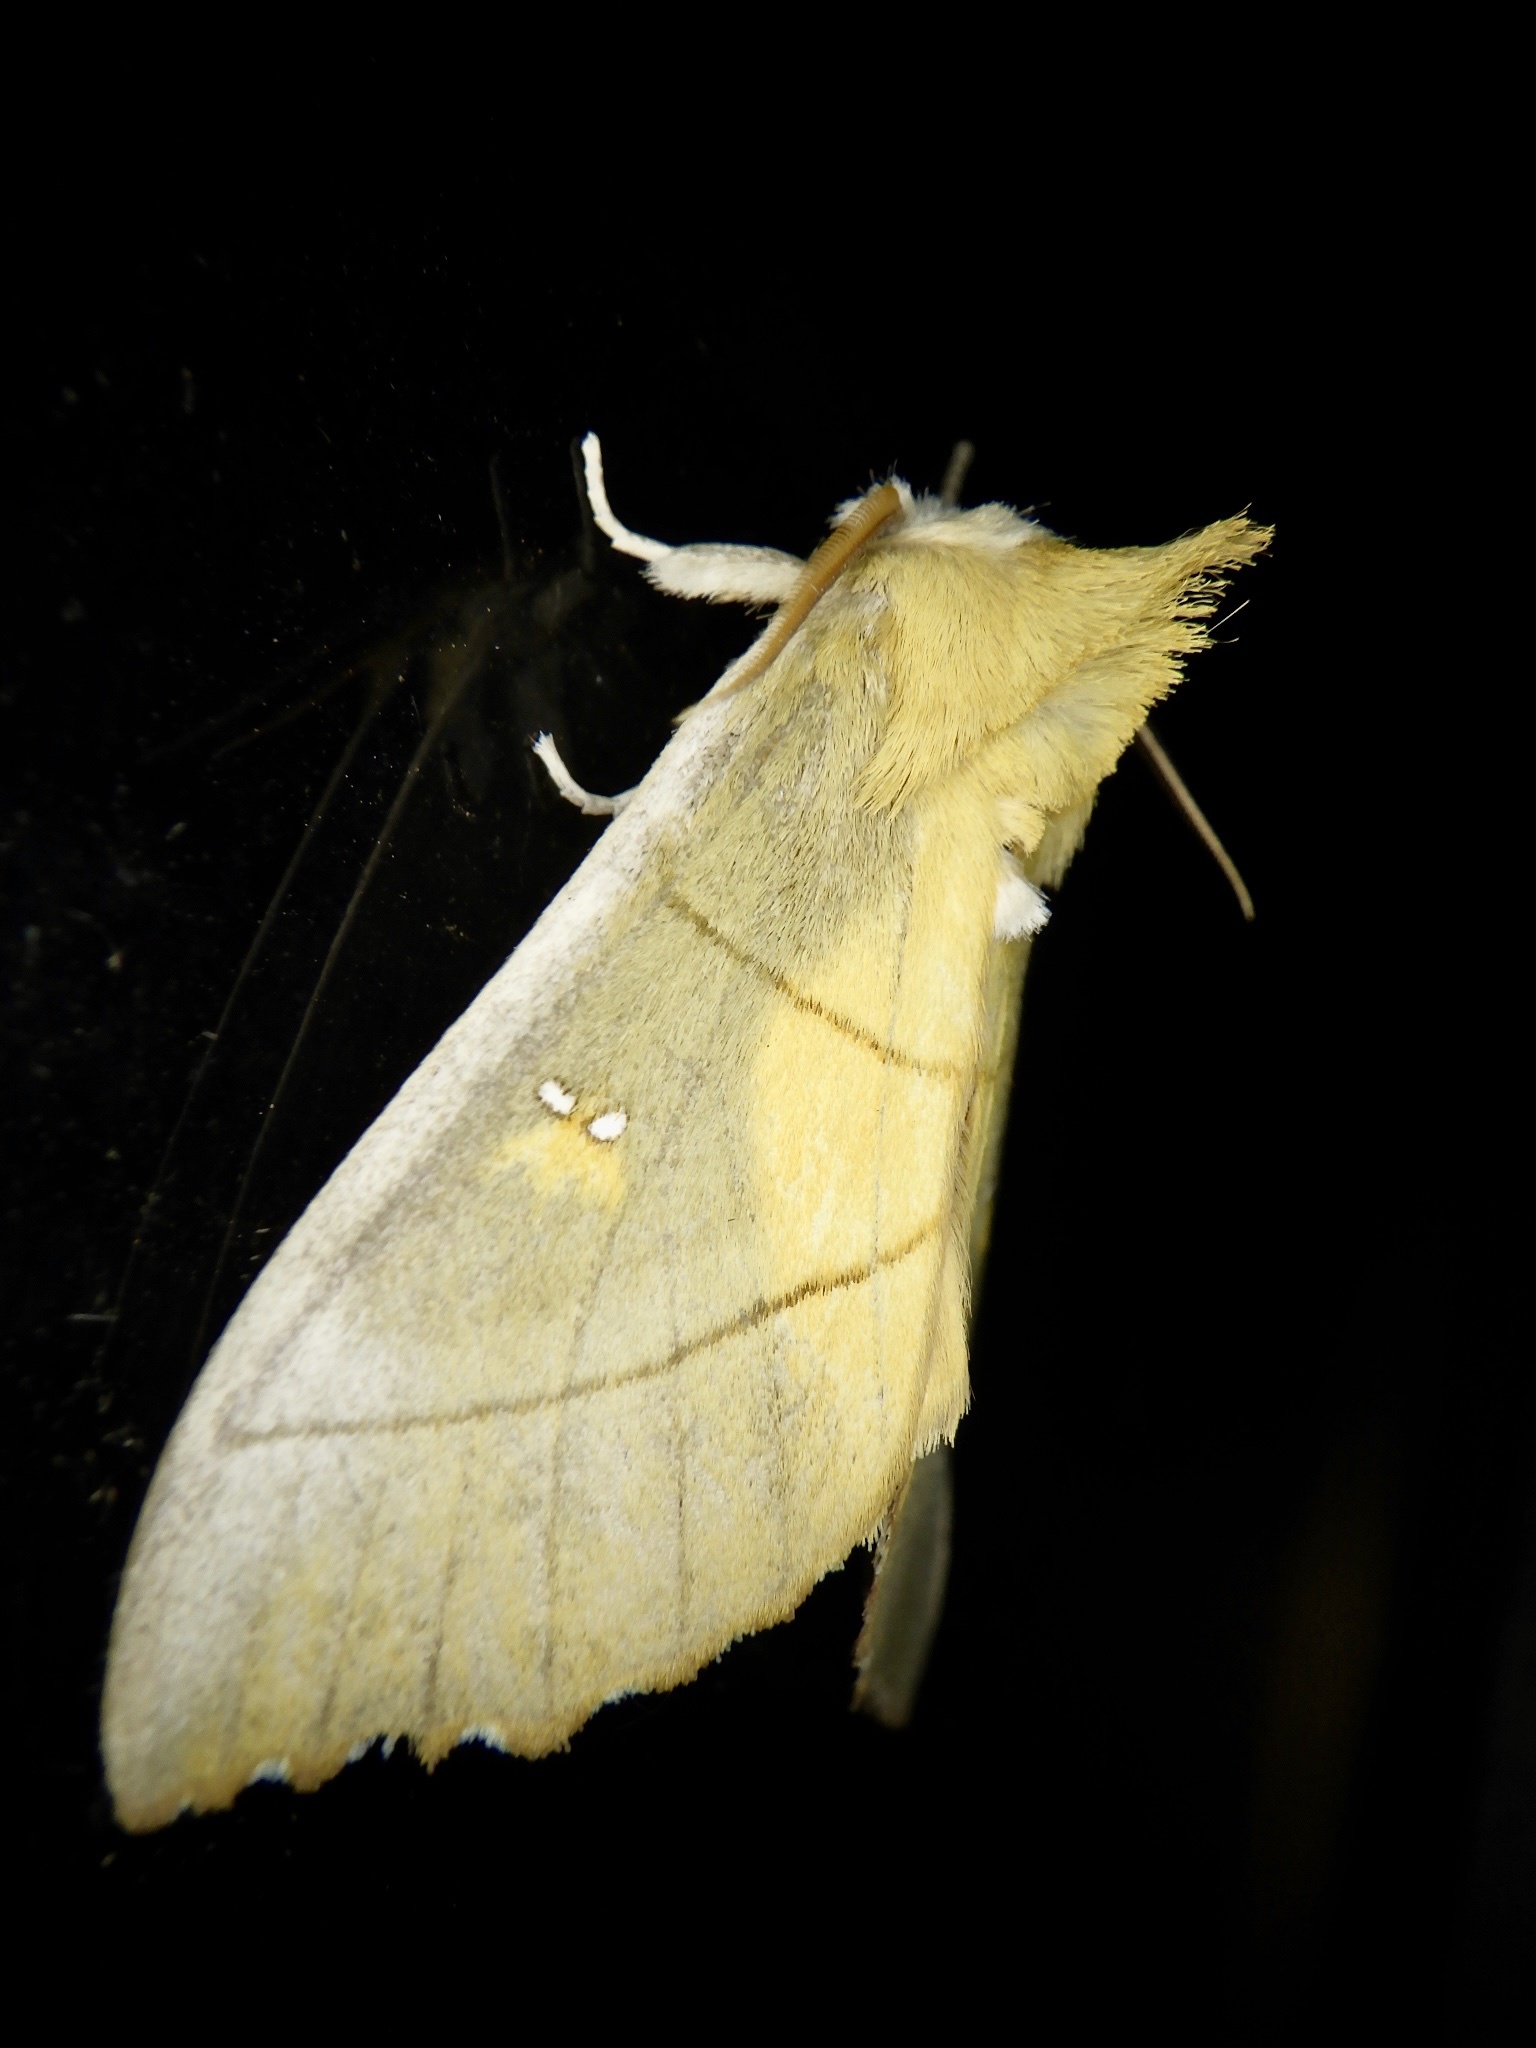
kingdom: Animalia
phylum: Arthropoda
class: Insecta
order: Lepidoptera
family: Notodontidae
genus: Euhampsonia
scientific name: Euhampsonia splendida
